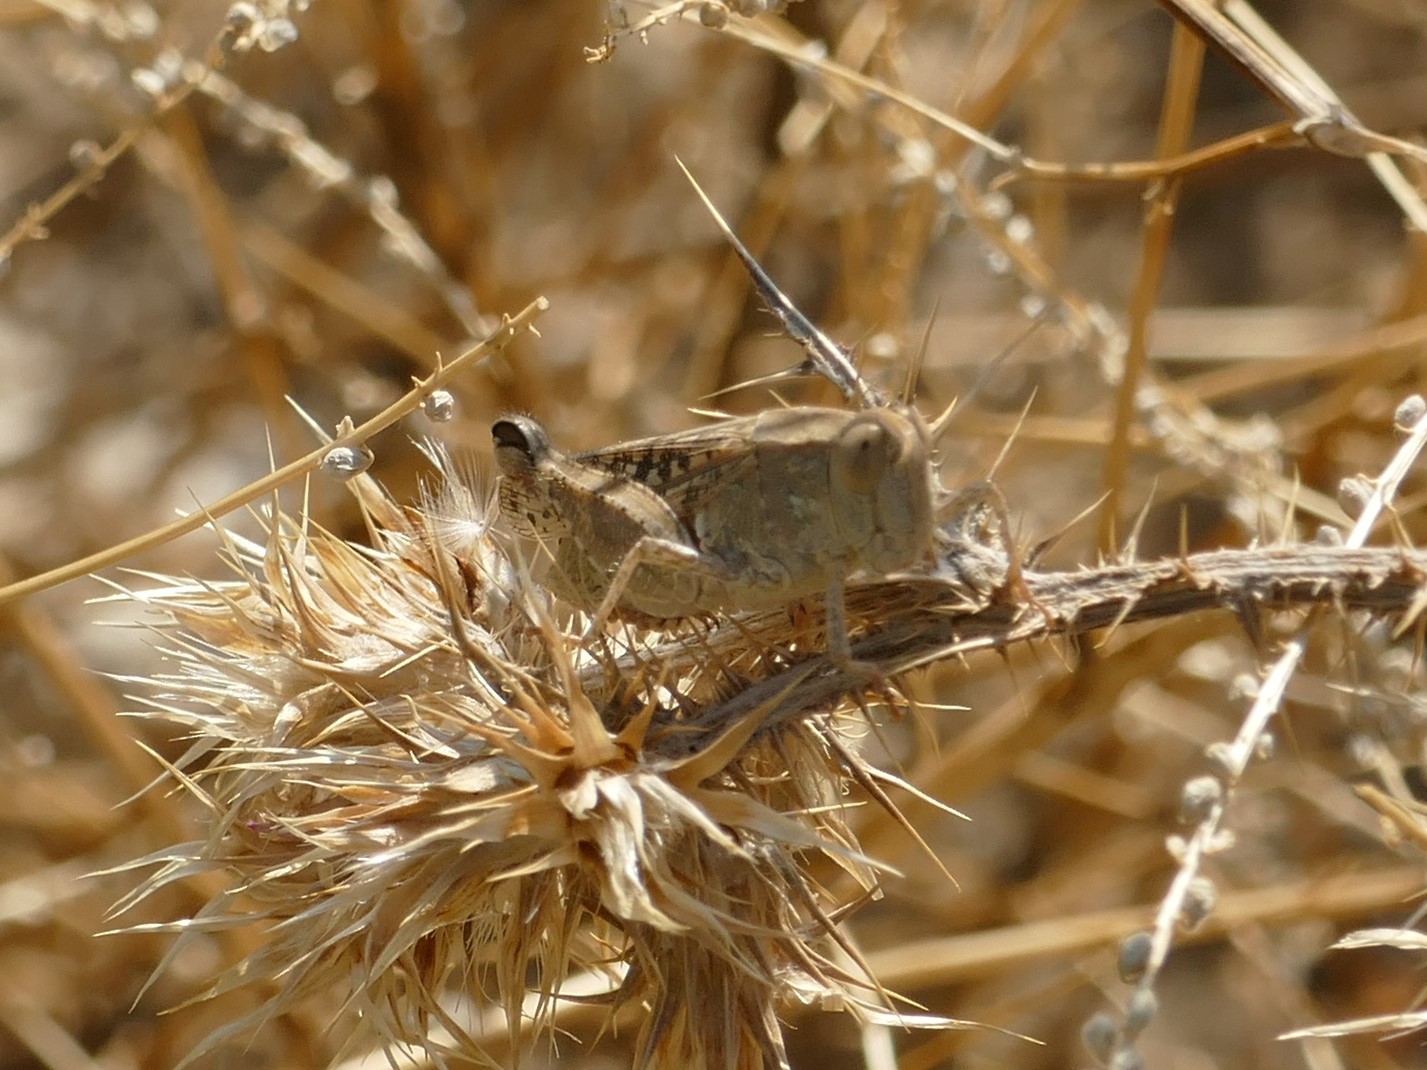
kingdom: Animalia
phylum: Arthropoda
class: Insecta
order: Orthoptera
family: Acrididae
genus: Calliptamus
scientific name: Calliptamus barbarus
